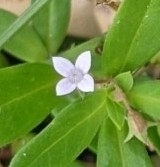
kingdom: Plantae
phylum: Tracheophyta
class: Magnoliopsida
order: Gentianales
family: Rubiaceae
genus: Oldenlandia
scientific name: Oldenlandia corymbosa
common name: Flat-top mille graines
